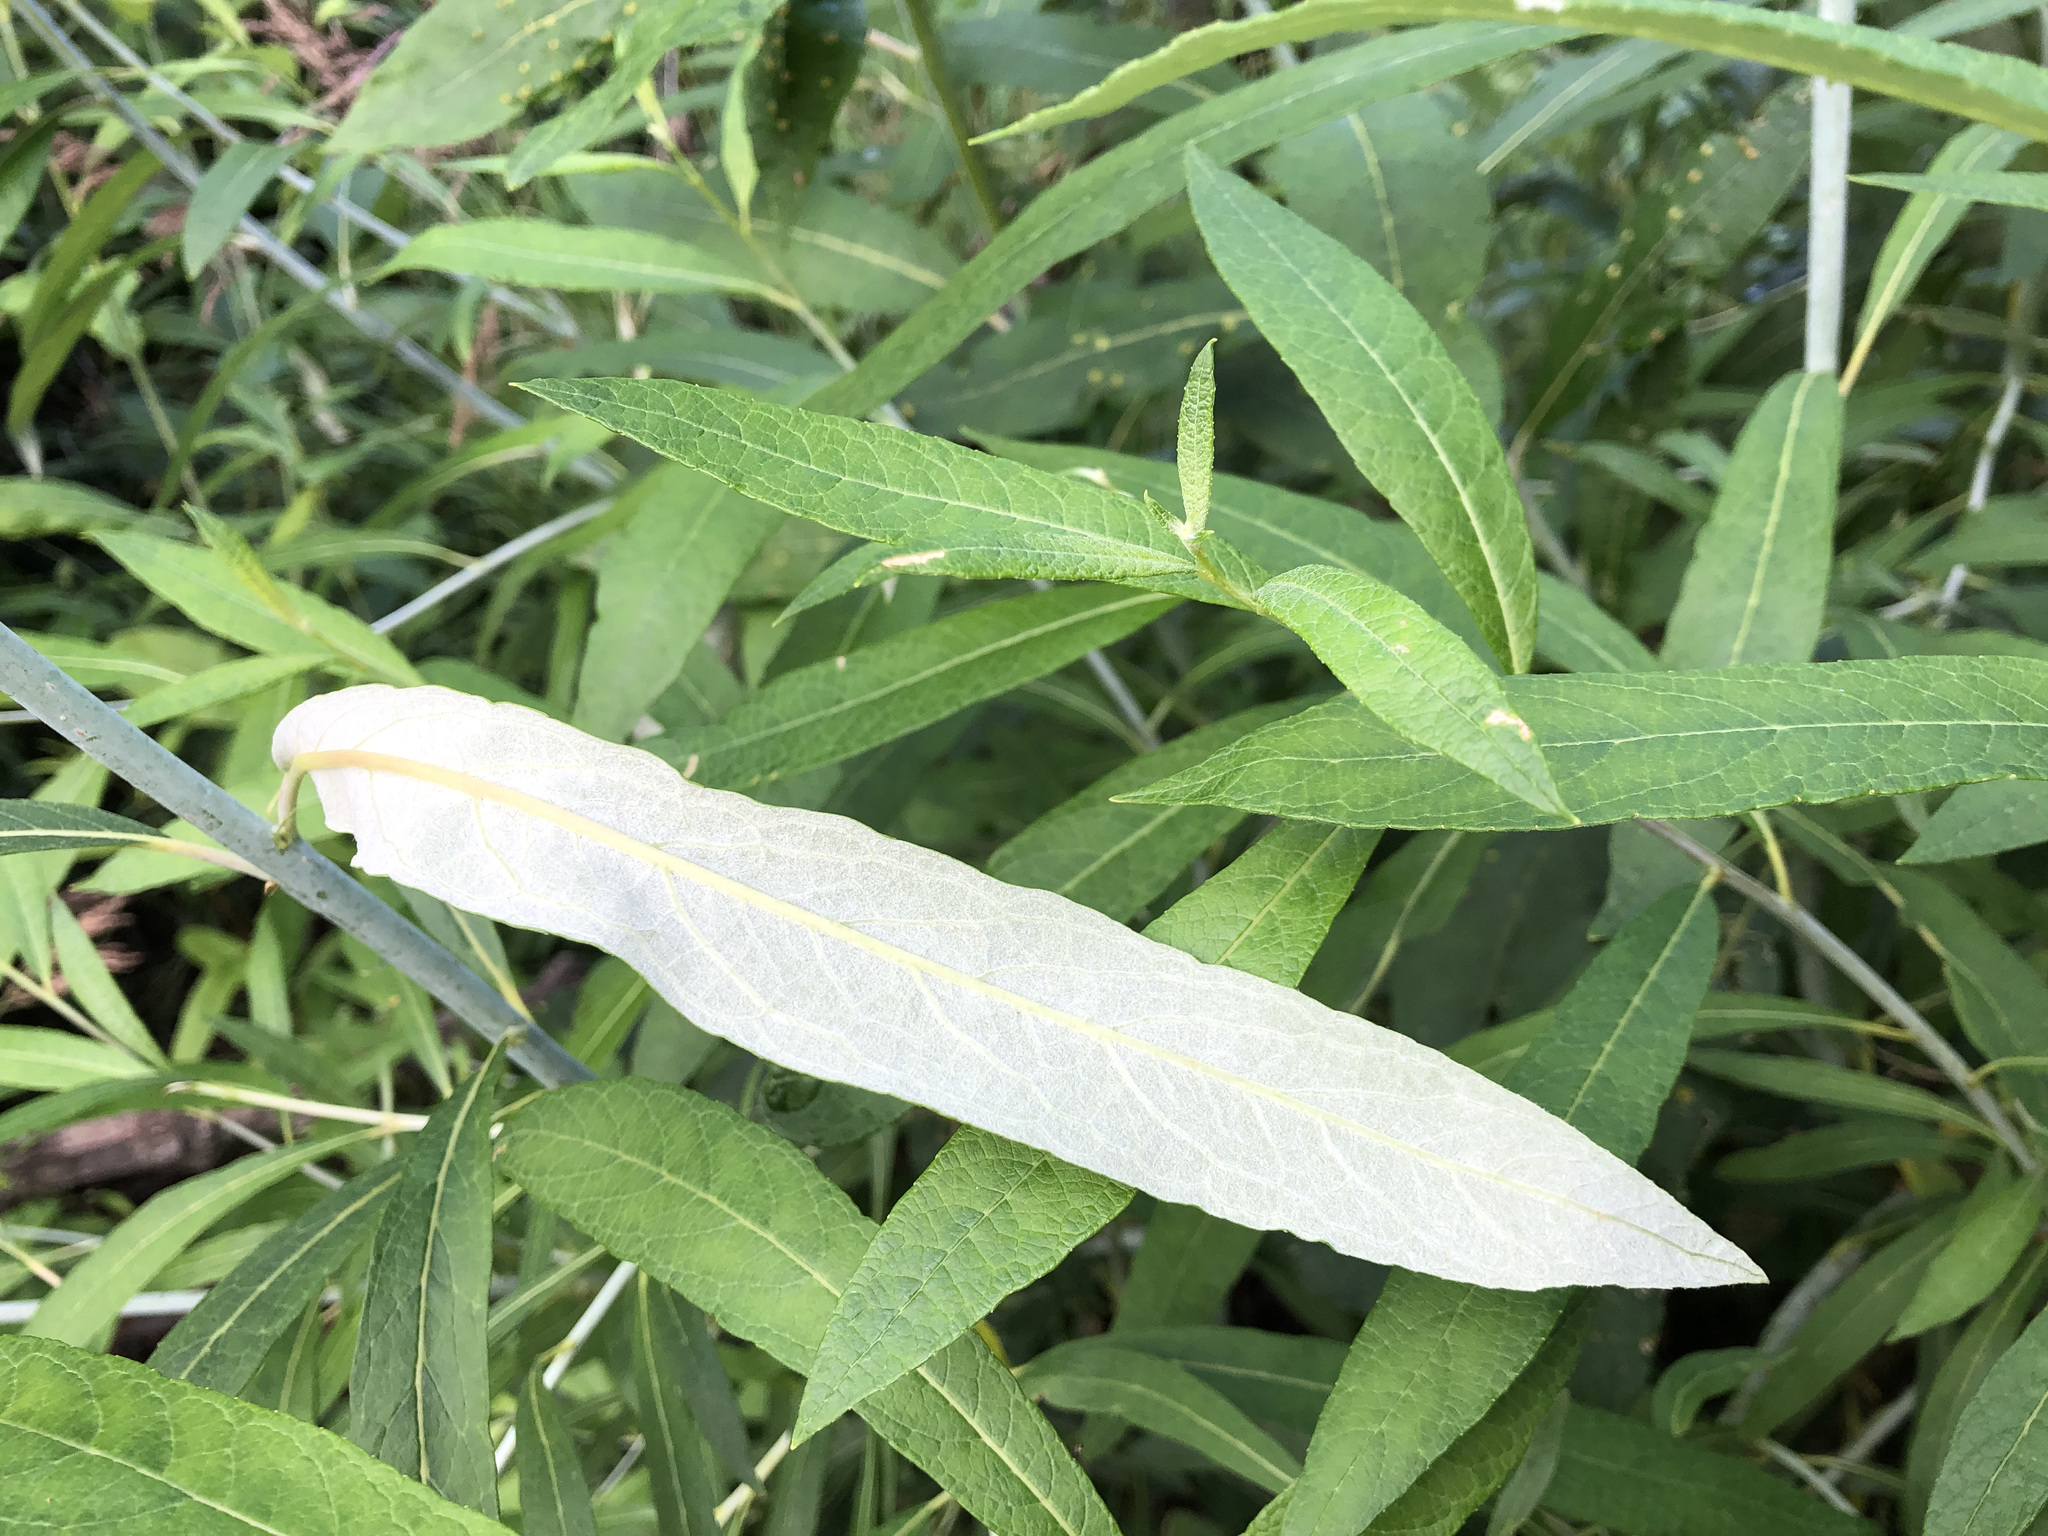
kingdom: Plantae
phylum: Tracheophyta
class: Magnoliopsida
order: Malpighiales
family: Salicaceae
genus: Salix
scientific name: Salix alaxensis
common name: Feltleaf willow
